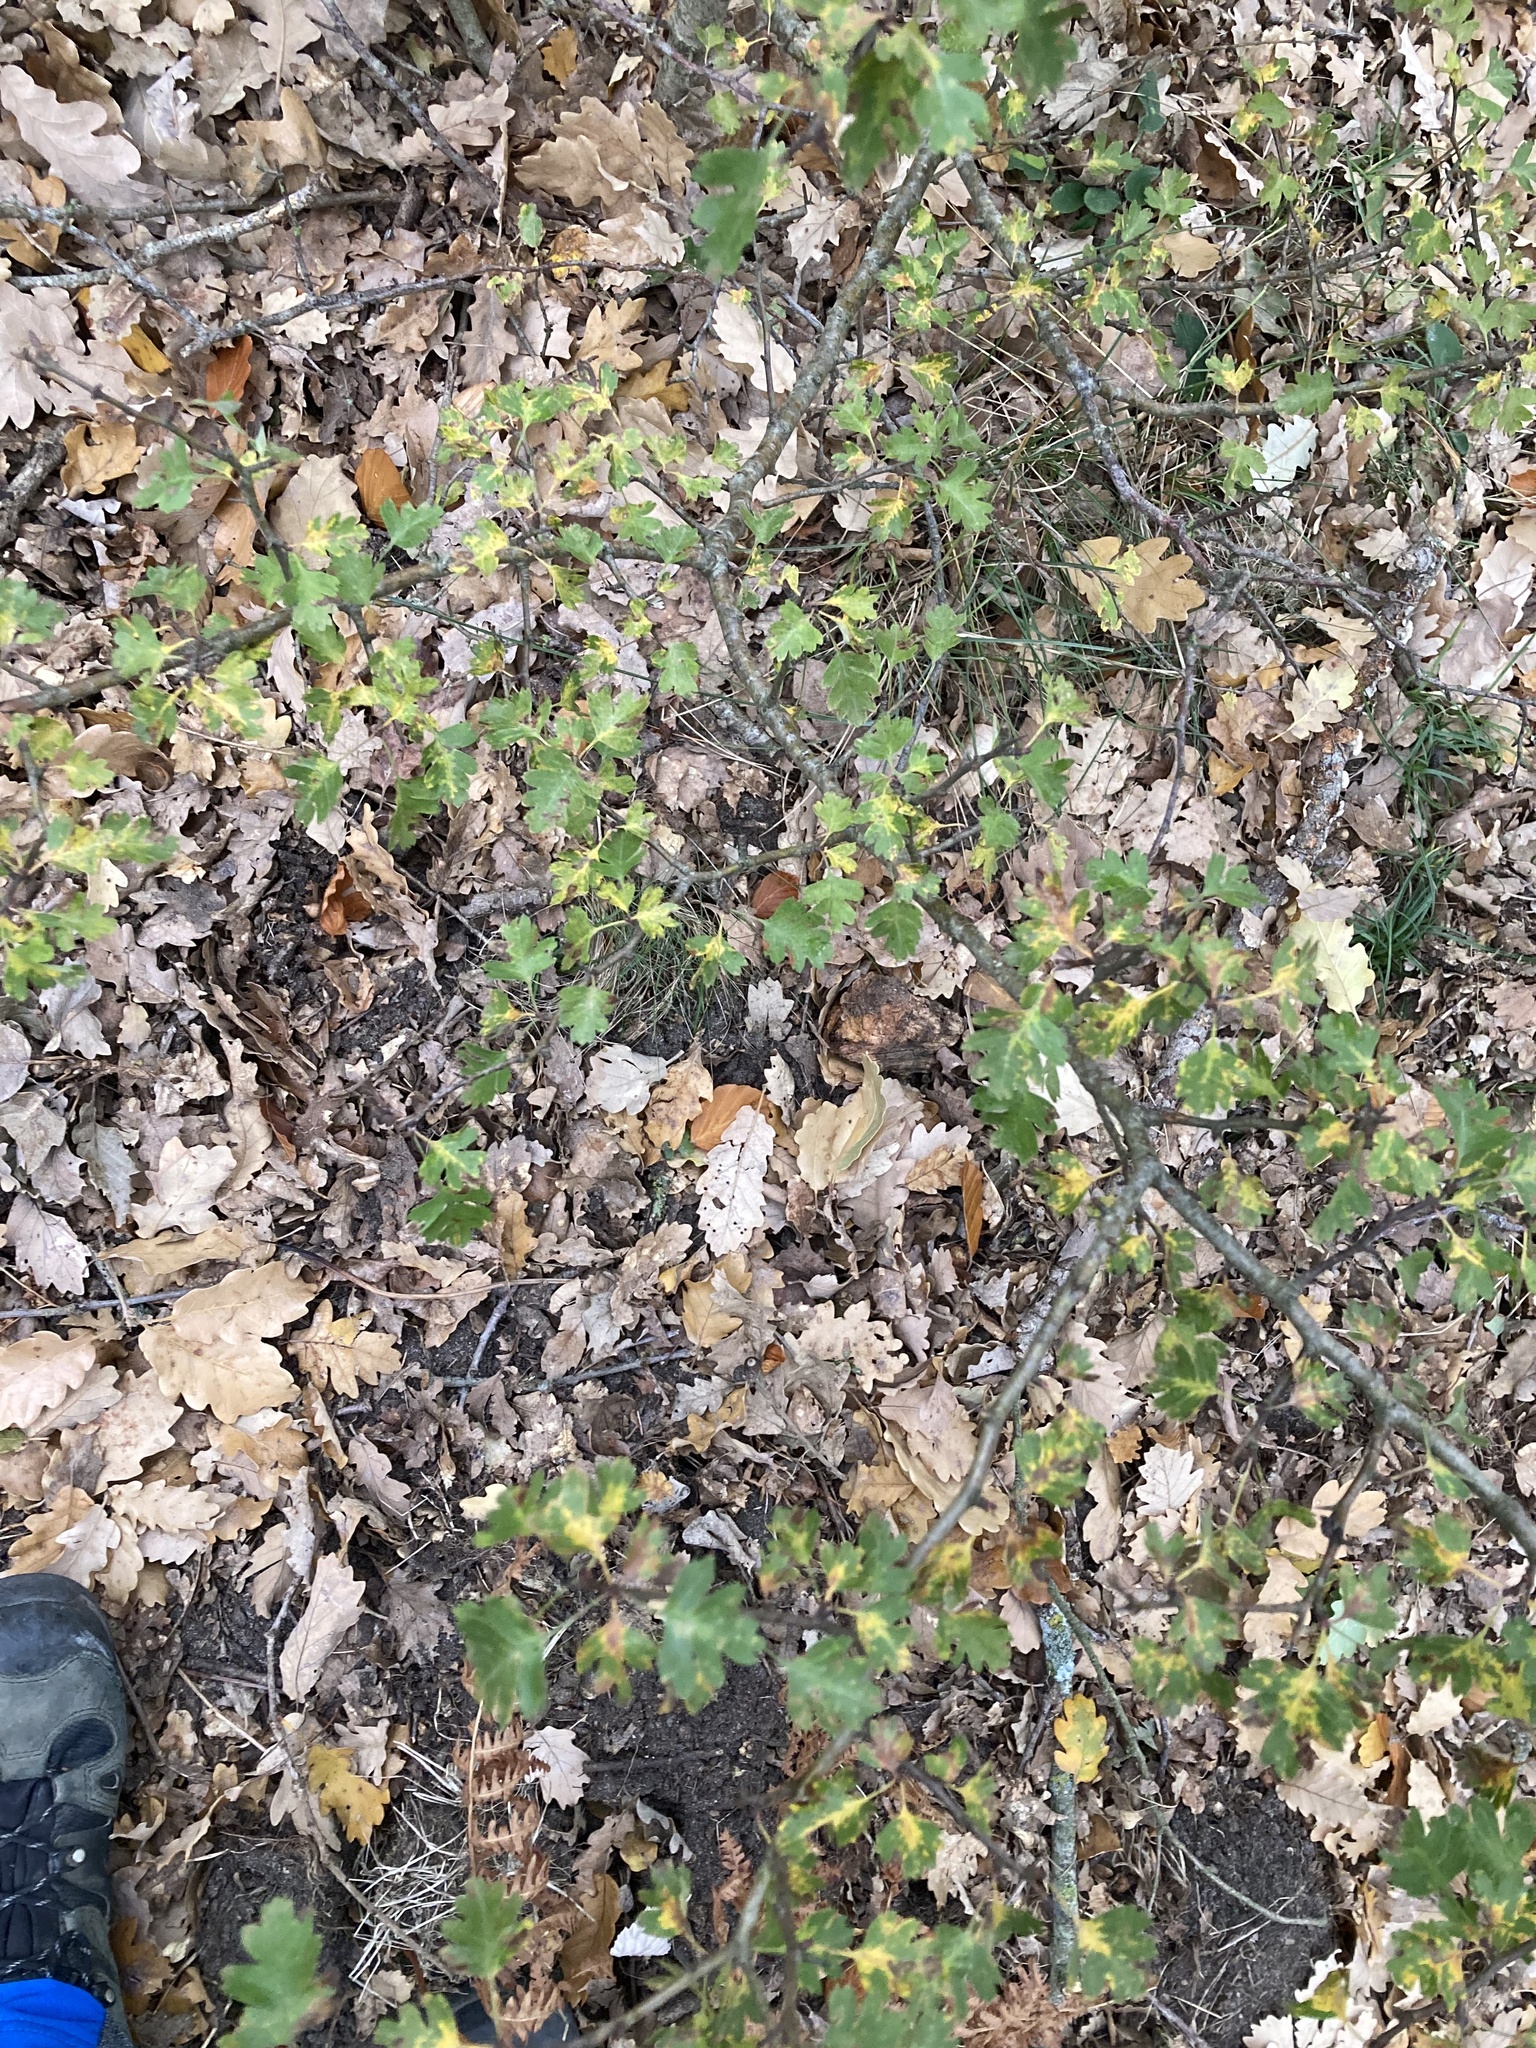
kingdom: Plantae
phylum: Tracheophyta
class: Magnoliopsida
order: Rosales
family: Rosaceae
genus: Crataegus
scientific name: Crataegus monogyna
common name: Hawthorn
